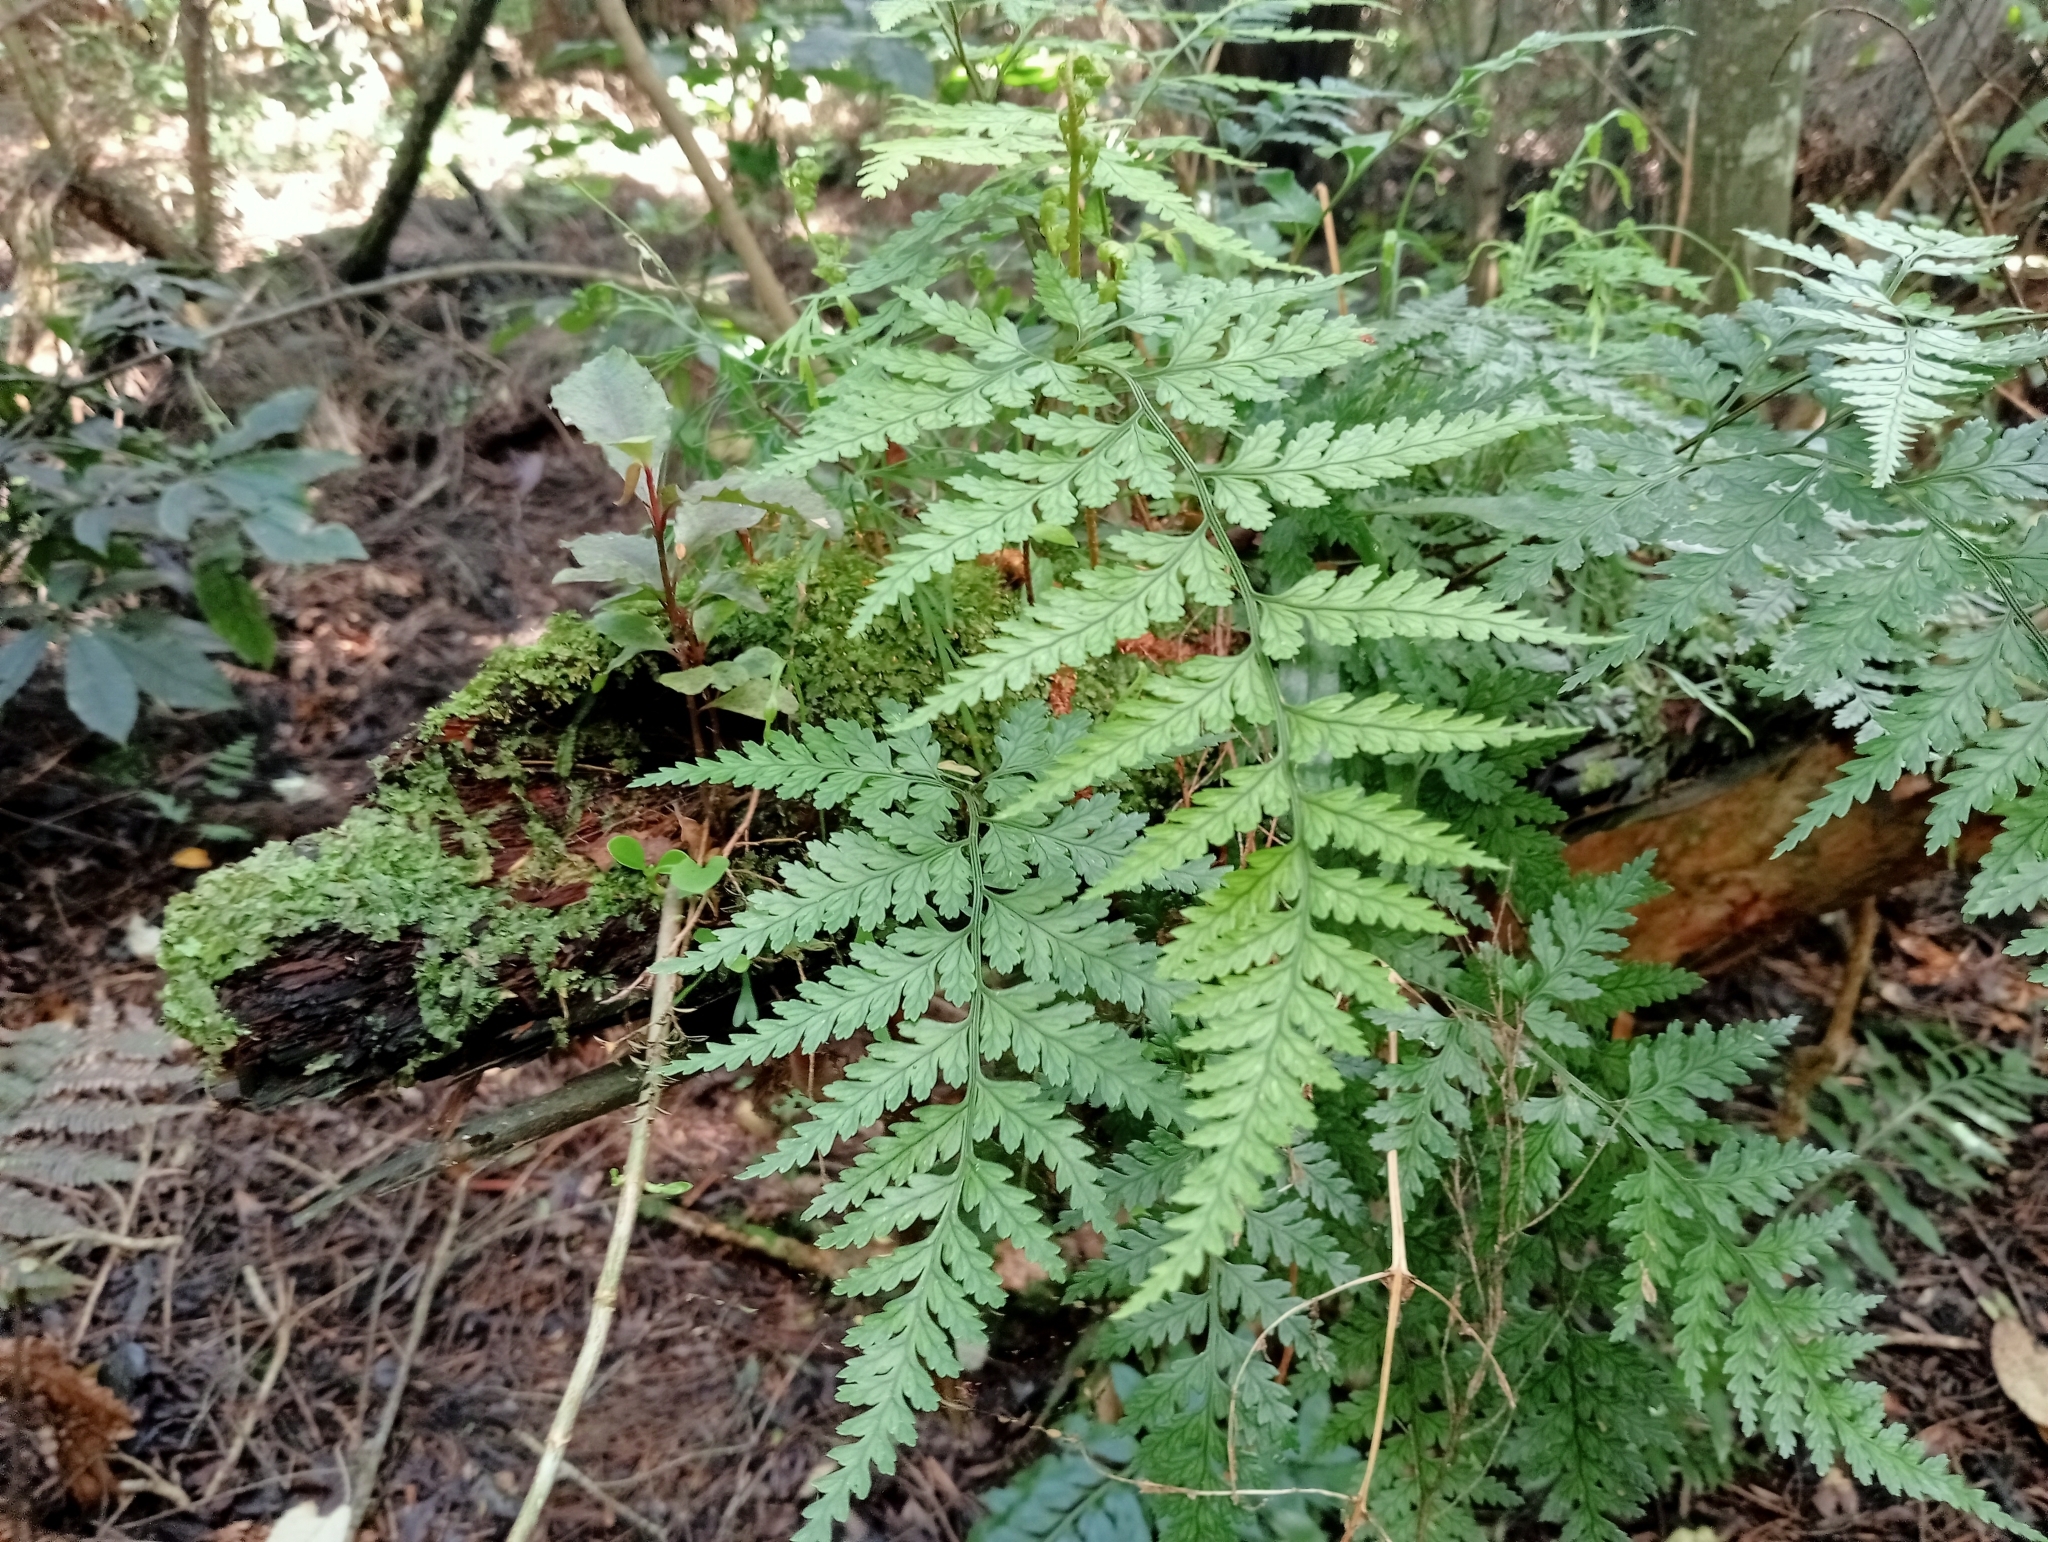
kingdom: Plantae
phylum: Tracheophyta
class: Polypodiopsida
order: Polypodiales
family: Dryopteridaceae
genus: Rumohra
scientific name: Rumohra adiantiformis
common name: Leather fern
